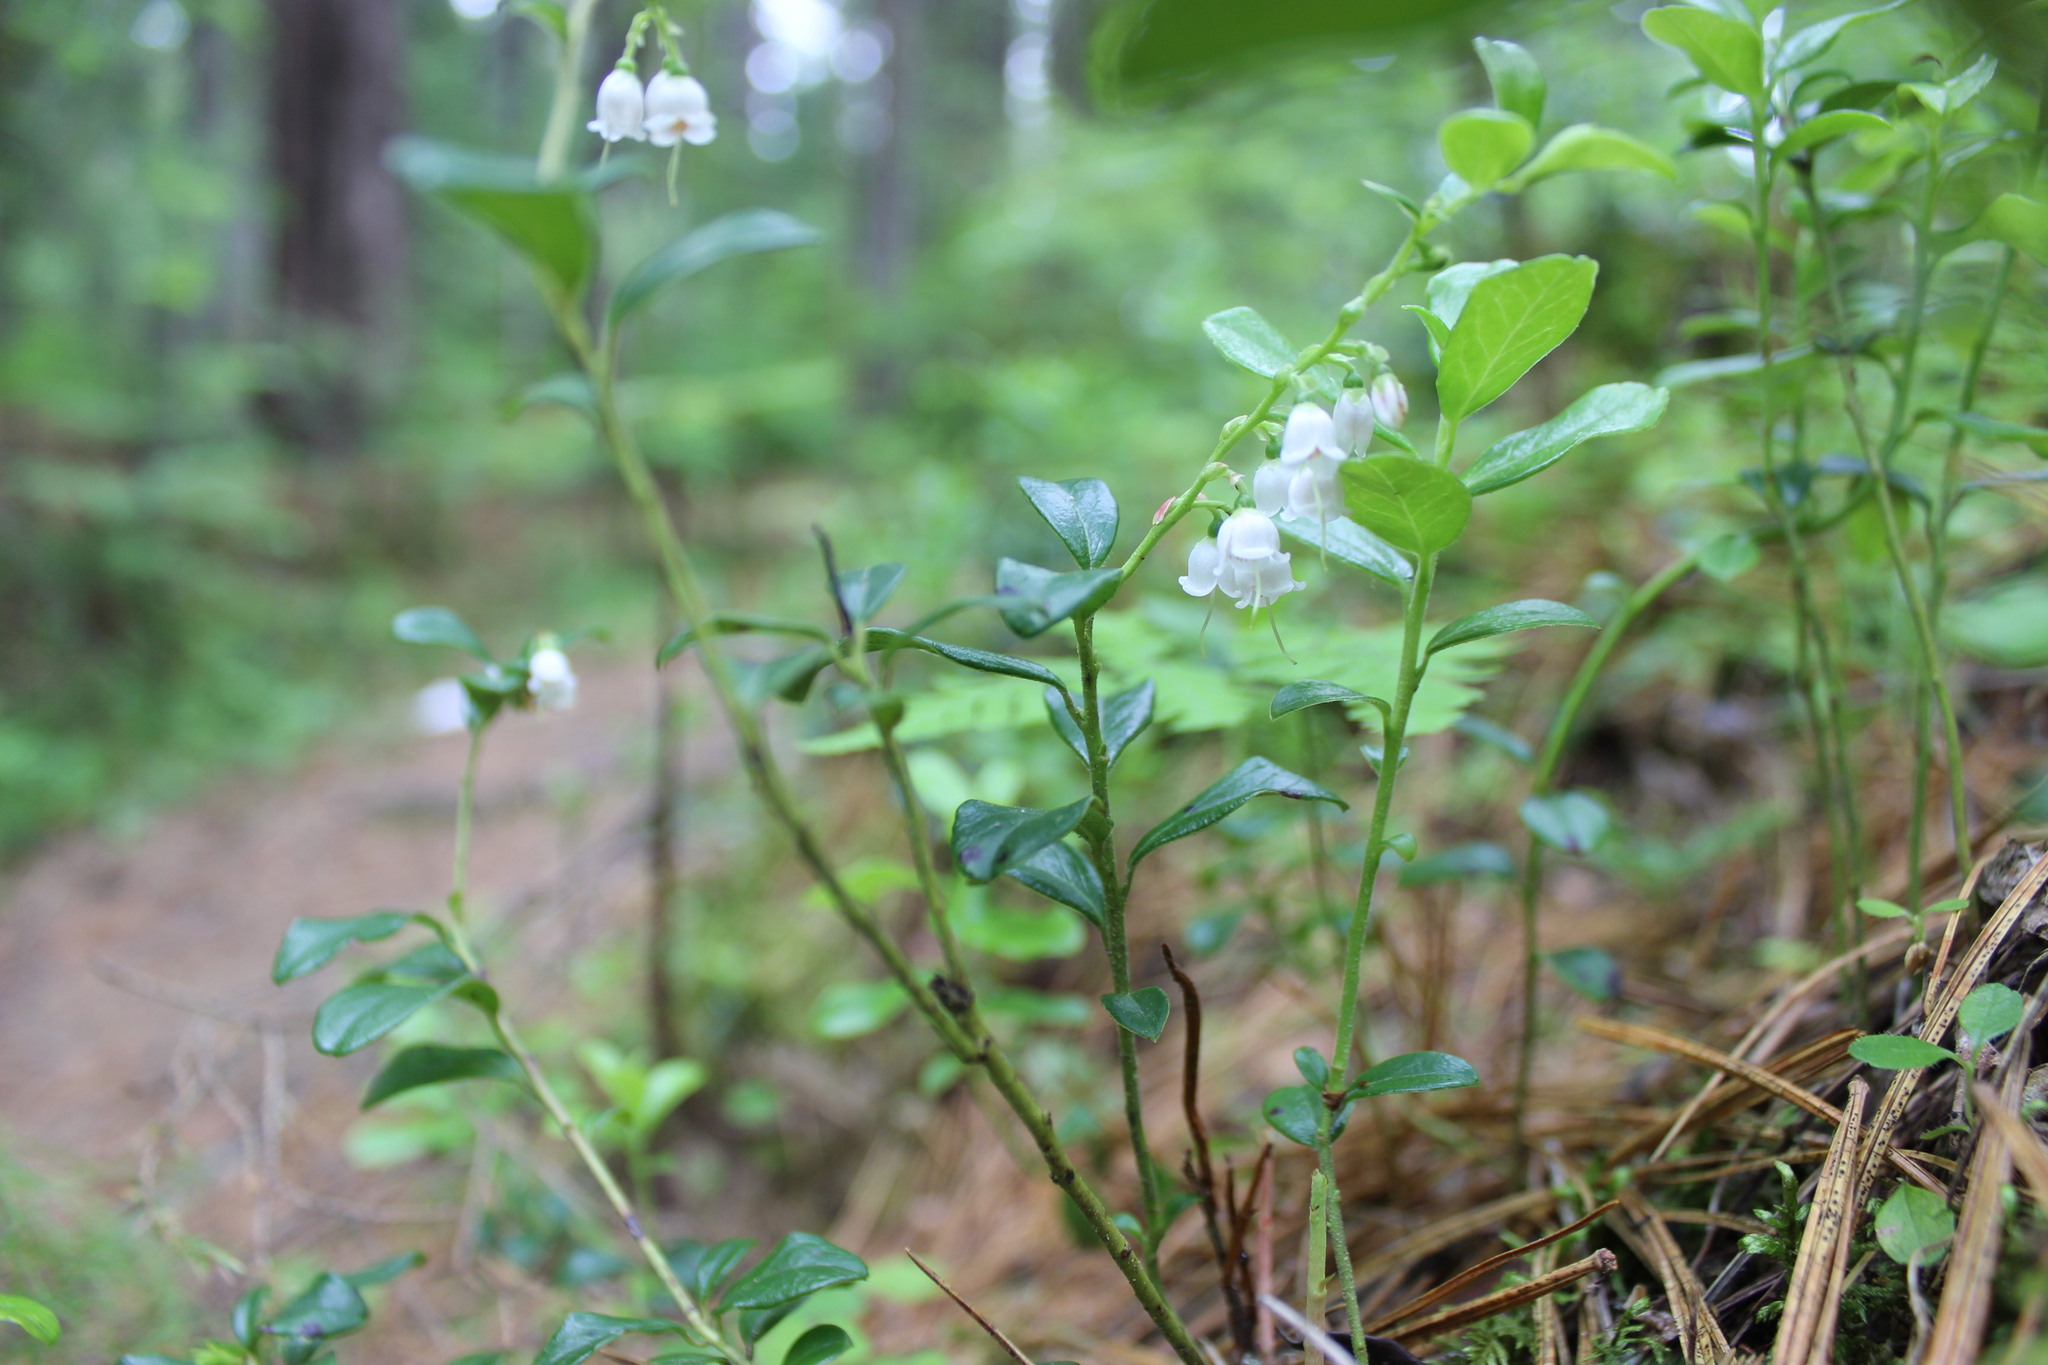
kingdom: Plantae
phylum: Tracheophyta
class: Magnoliopsida
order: Ericales
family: Ericaceae
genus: Vaccinium
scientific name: Vaccinium vitis-idaea
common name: Cowberry
